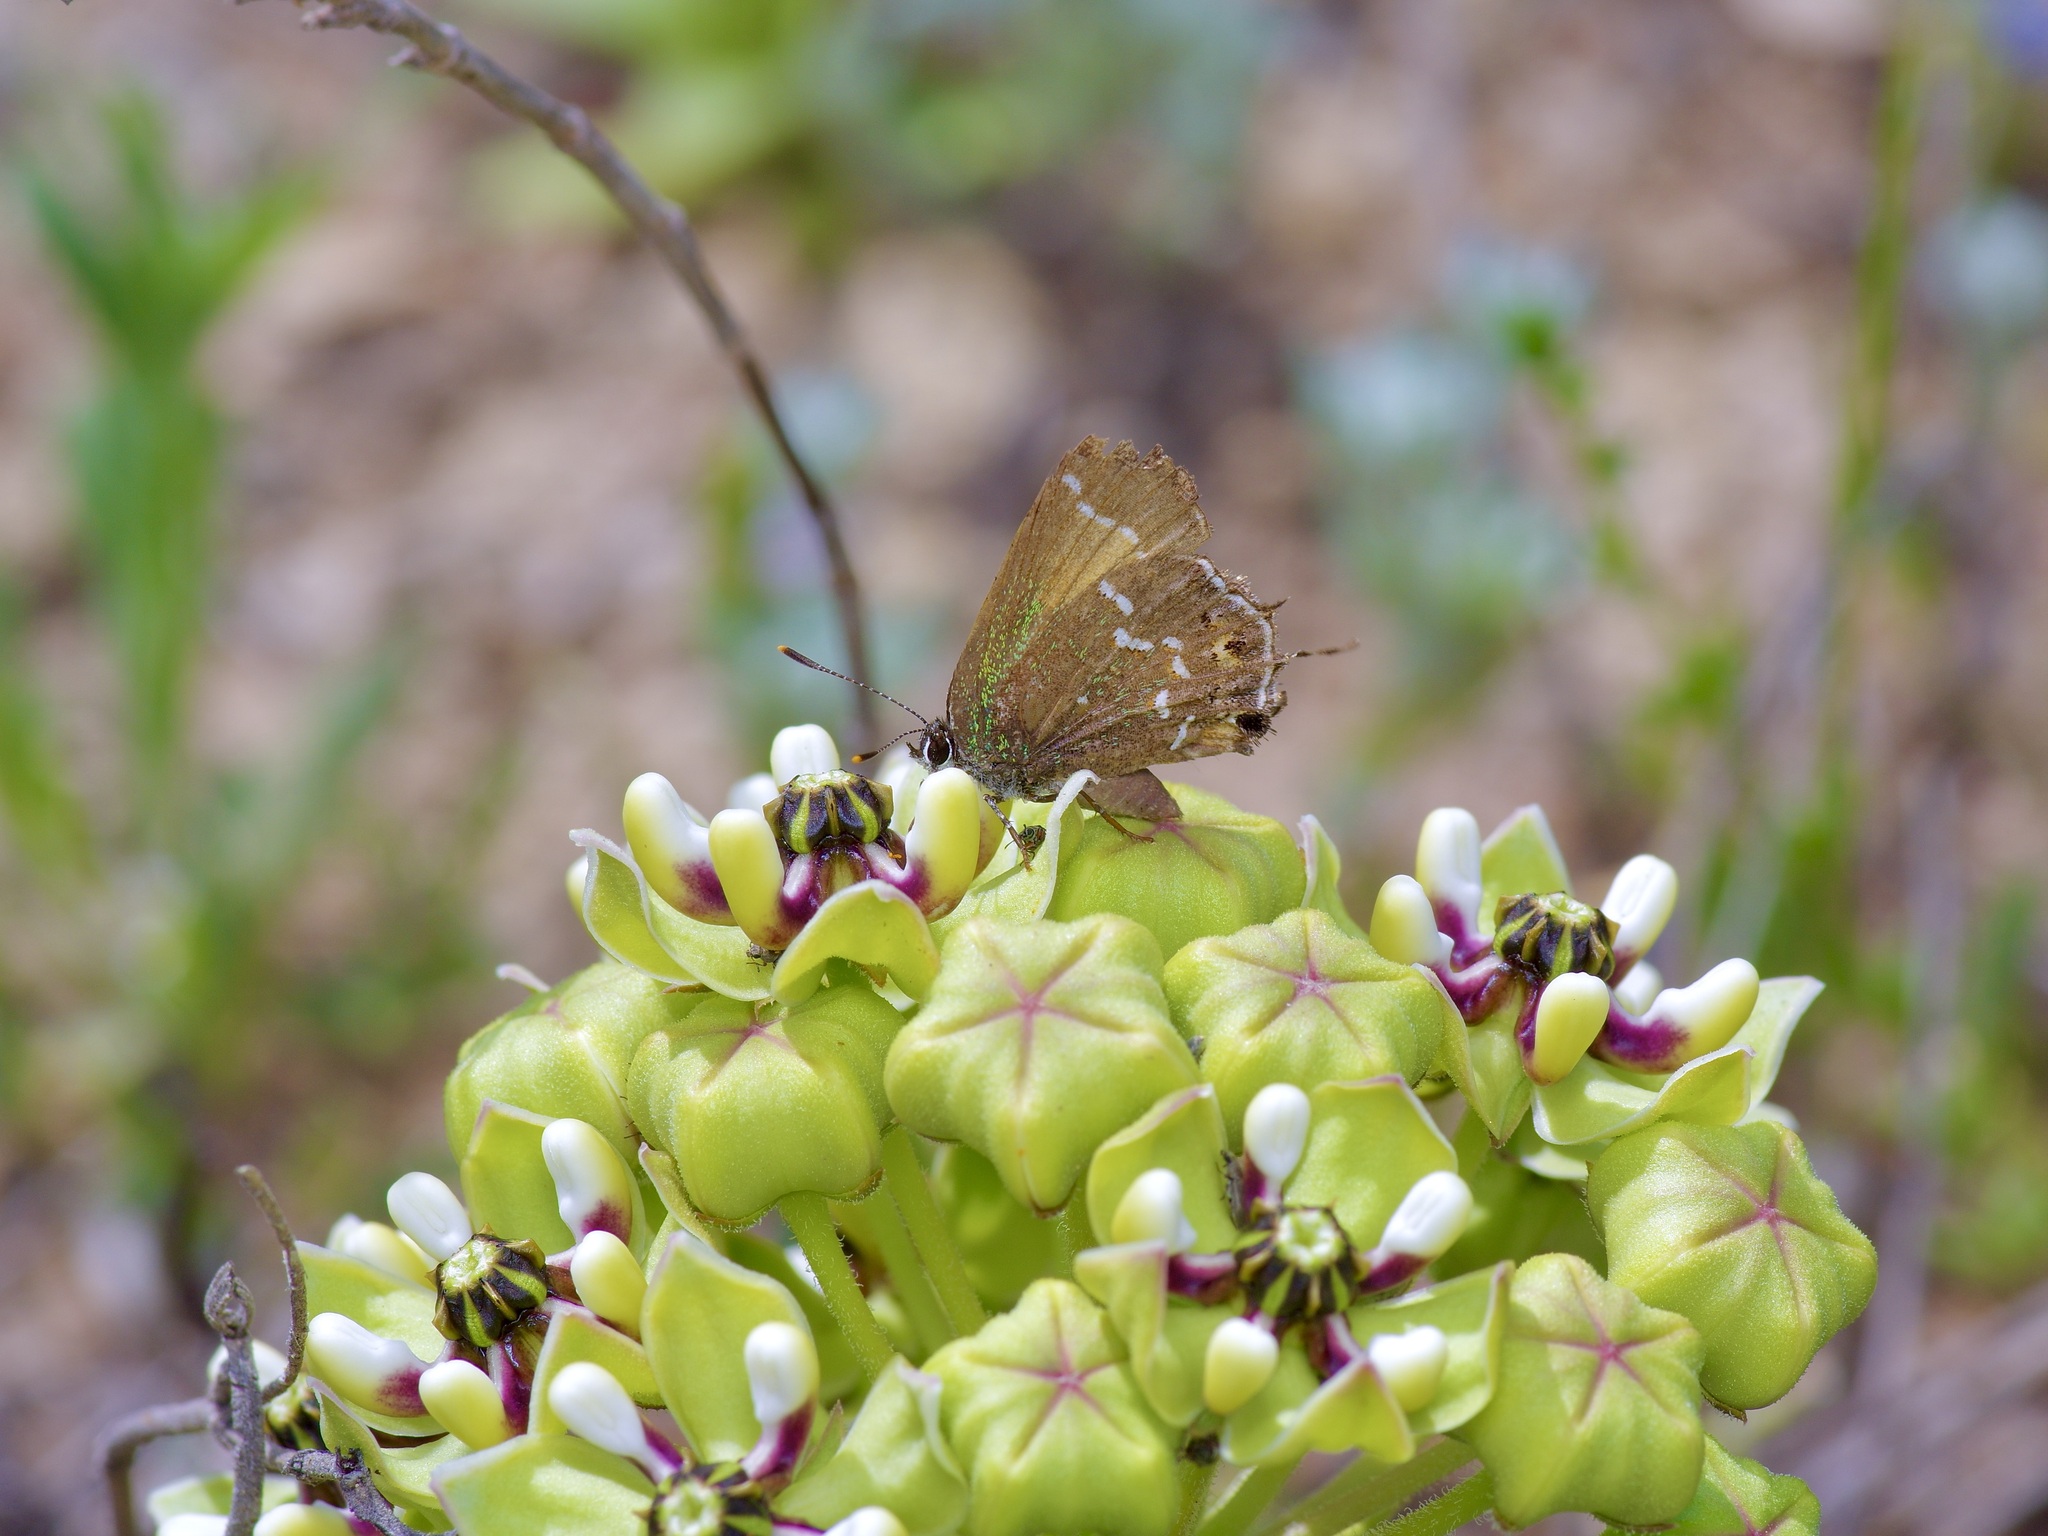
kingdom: Animalia
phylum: Arthropoda
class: Insecta
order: Lepidoptera
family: Lycaenidae
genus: Mitoura
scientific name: Mitoura gryneus
